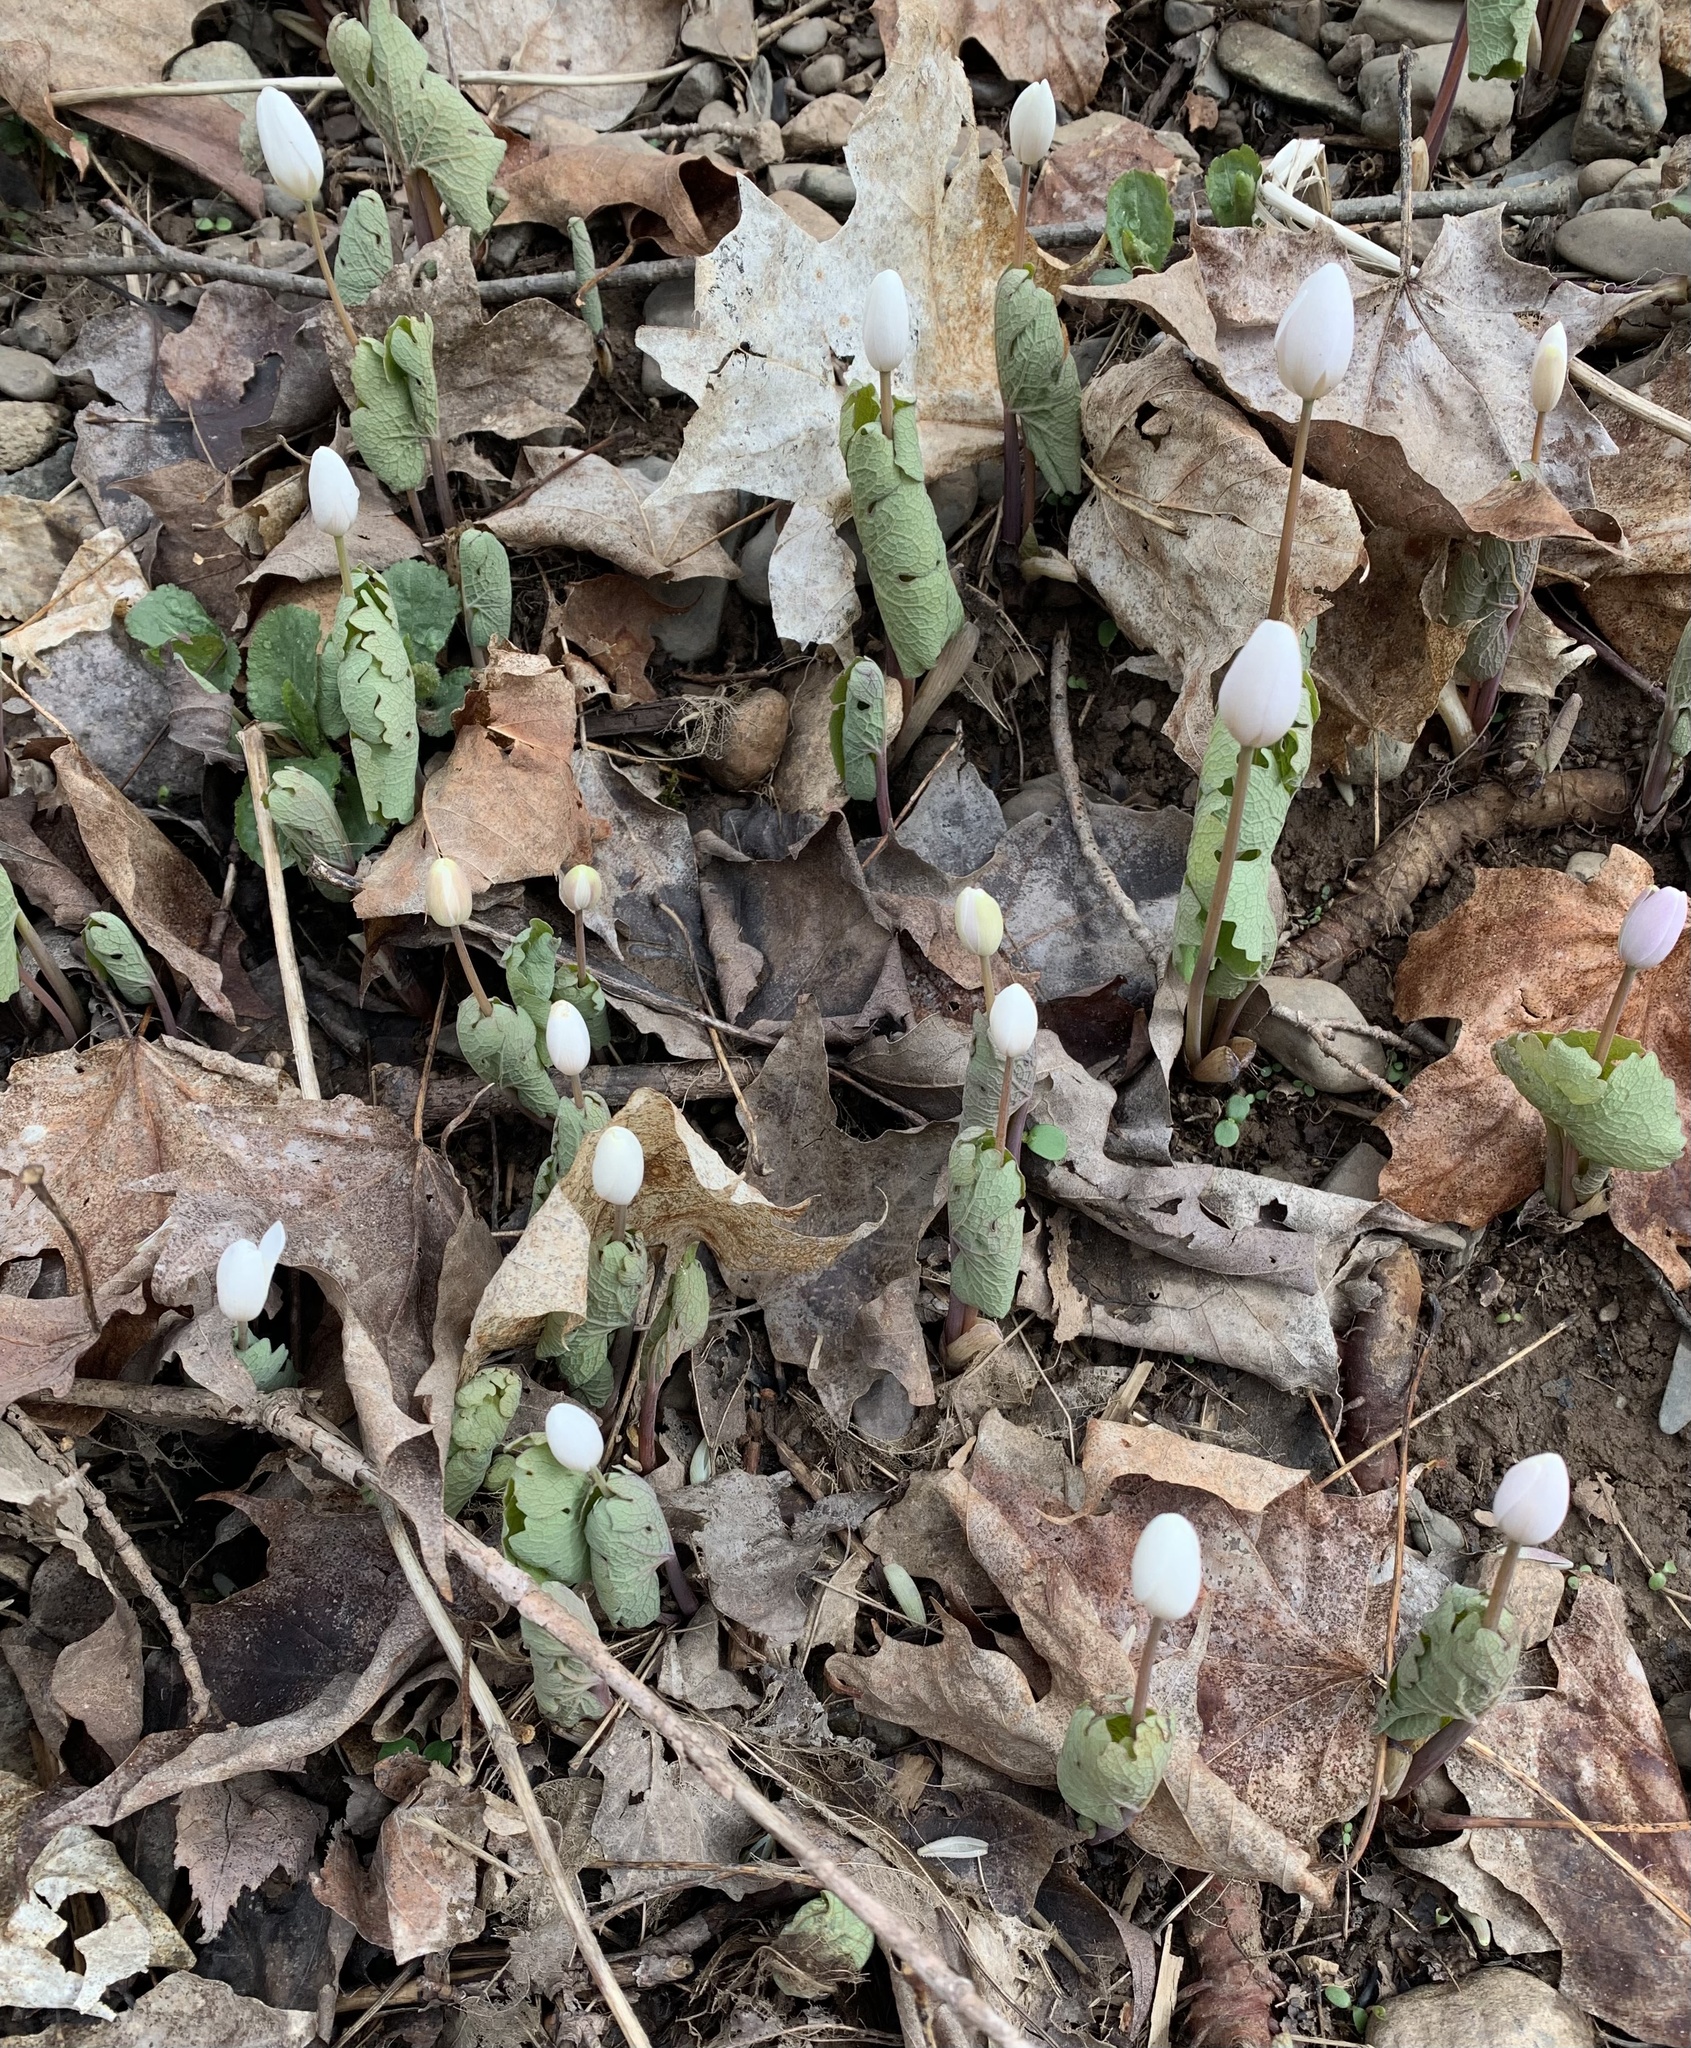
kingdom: Plantae
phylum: Tracheophyta
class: Magnoliopsida
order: Ranunculales
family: Papaveraceae
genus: Sanguinaria
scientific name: Sanguinaria canadensis
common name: Bloodroot
